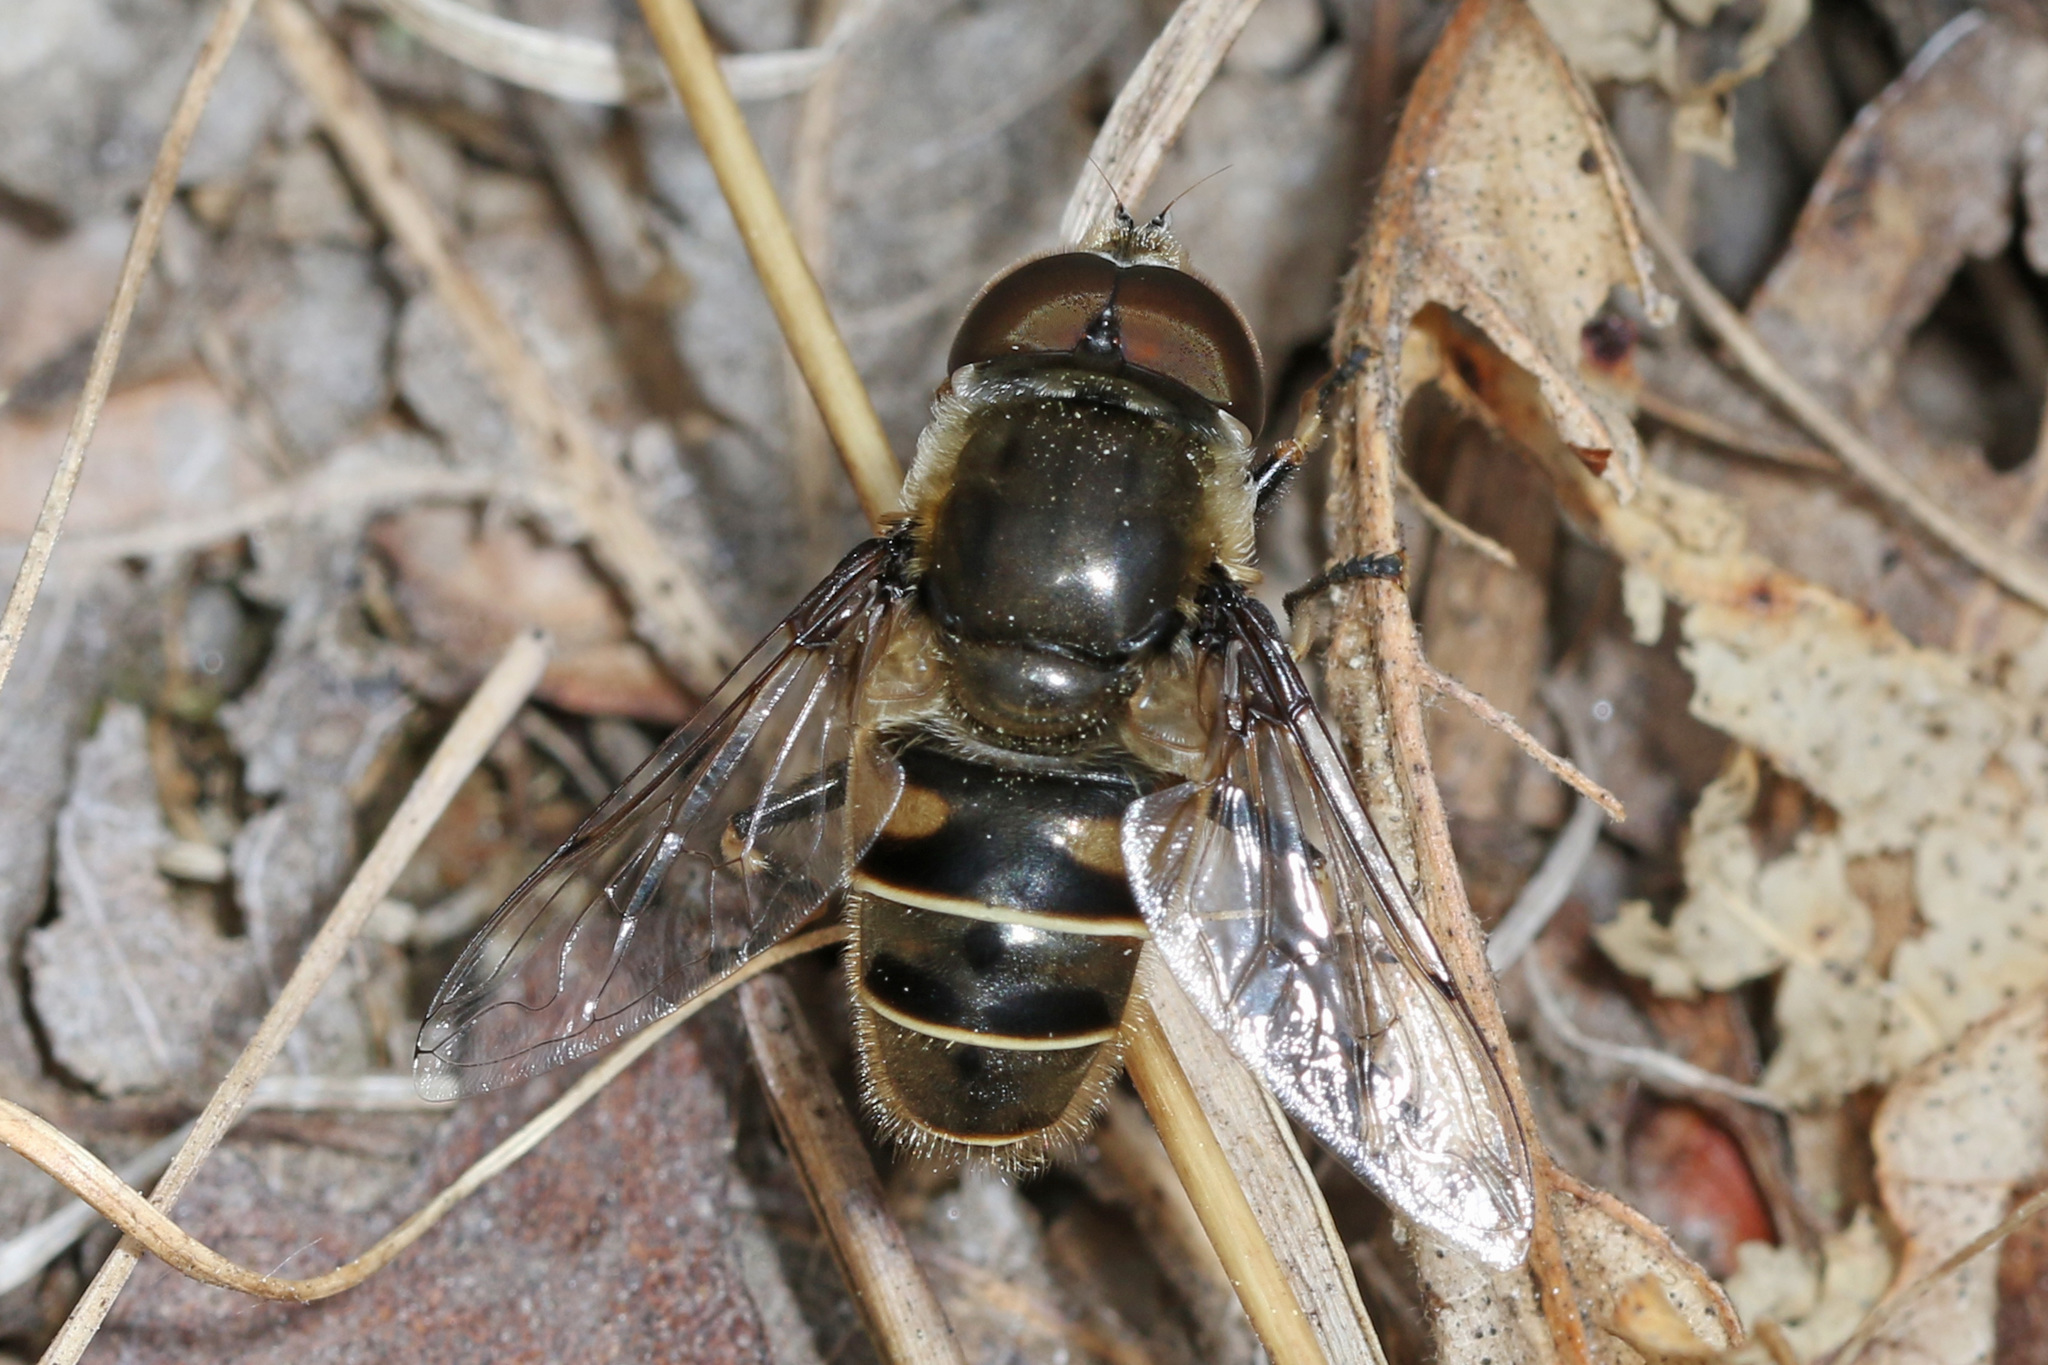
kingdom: Animalia
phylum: Arthropoda
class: Insecta
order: Diptera
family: Syrphidae
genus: Eristalis
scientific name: Eristalis dimidiata
